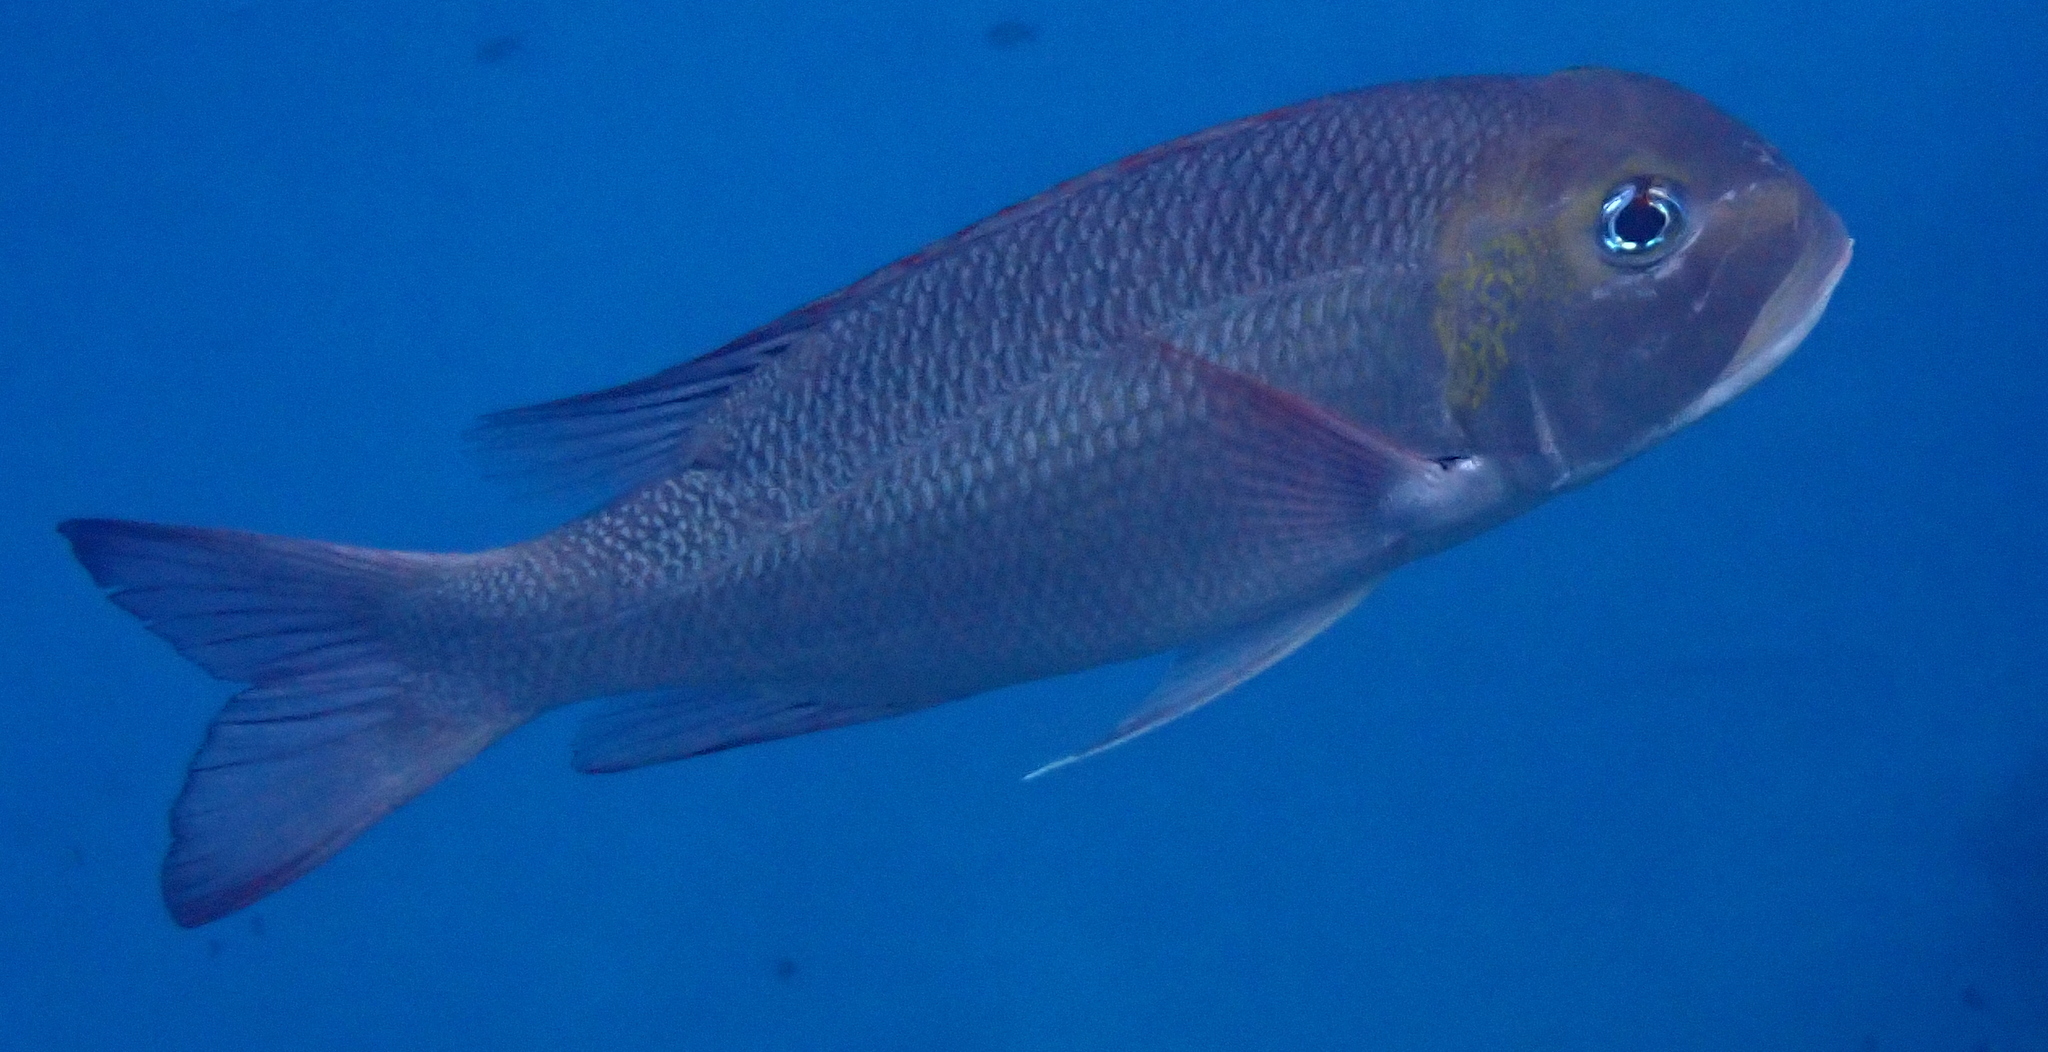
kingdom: Animalia
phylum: Chordata
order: Perciformes
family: Lethrinidae
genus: Monotaxis
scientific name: Monotaxis grandoculis
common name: Bigeye emperor
